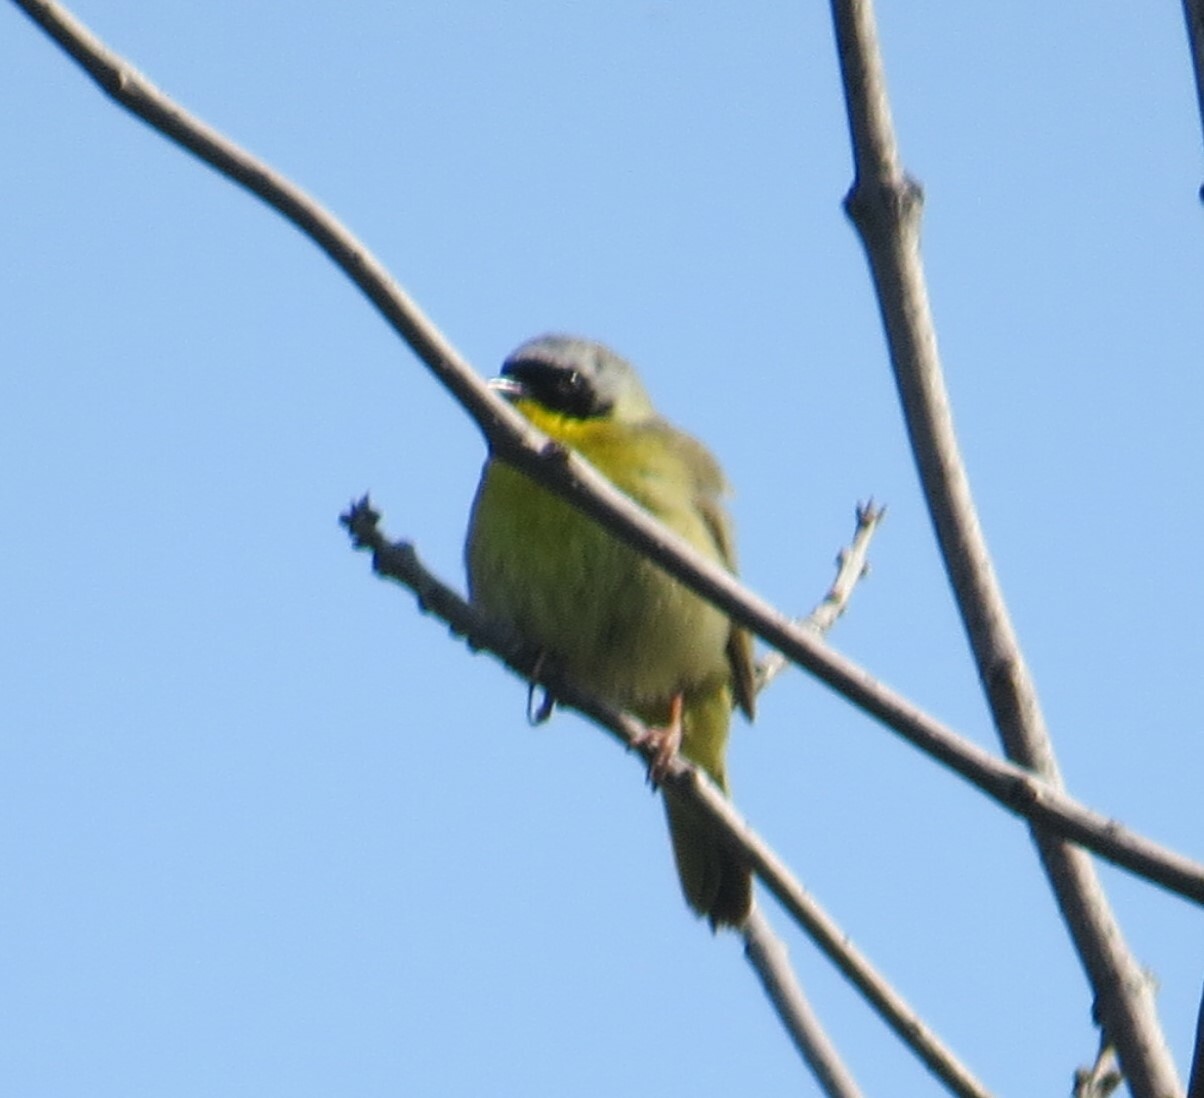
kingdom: Animalia
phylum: Chordata
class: Aves
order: Passeriformes
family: Parulidae
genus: Geothlypis
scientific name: Geothlypis trichas
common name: Common yellowthroat
